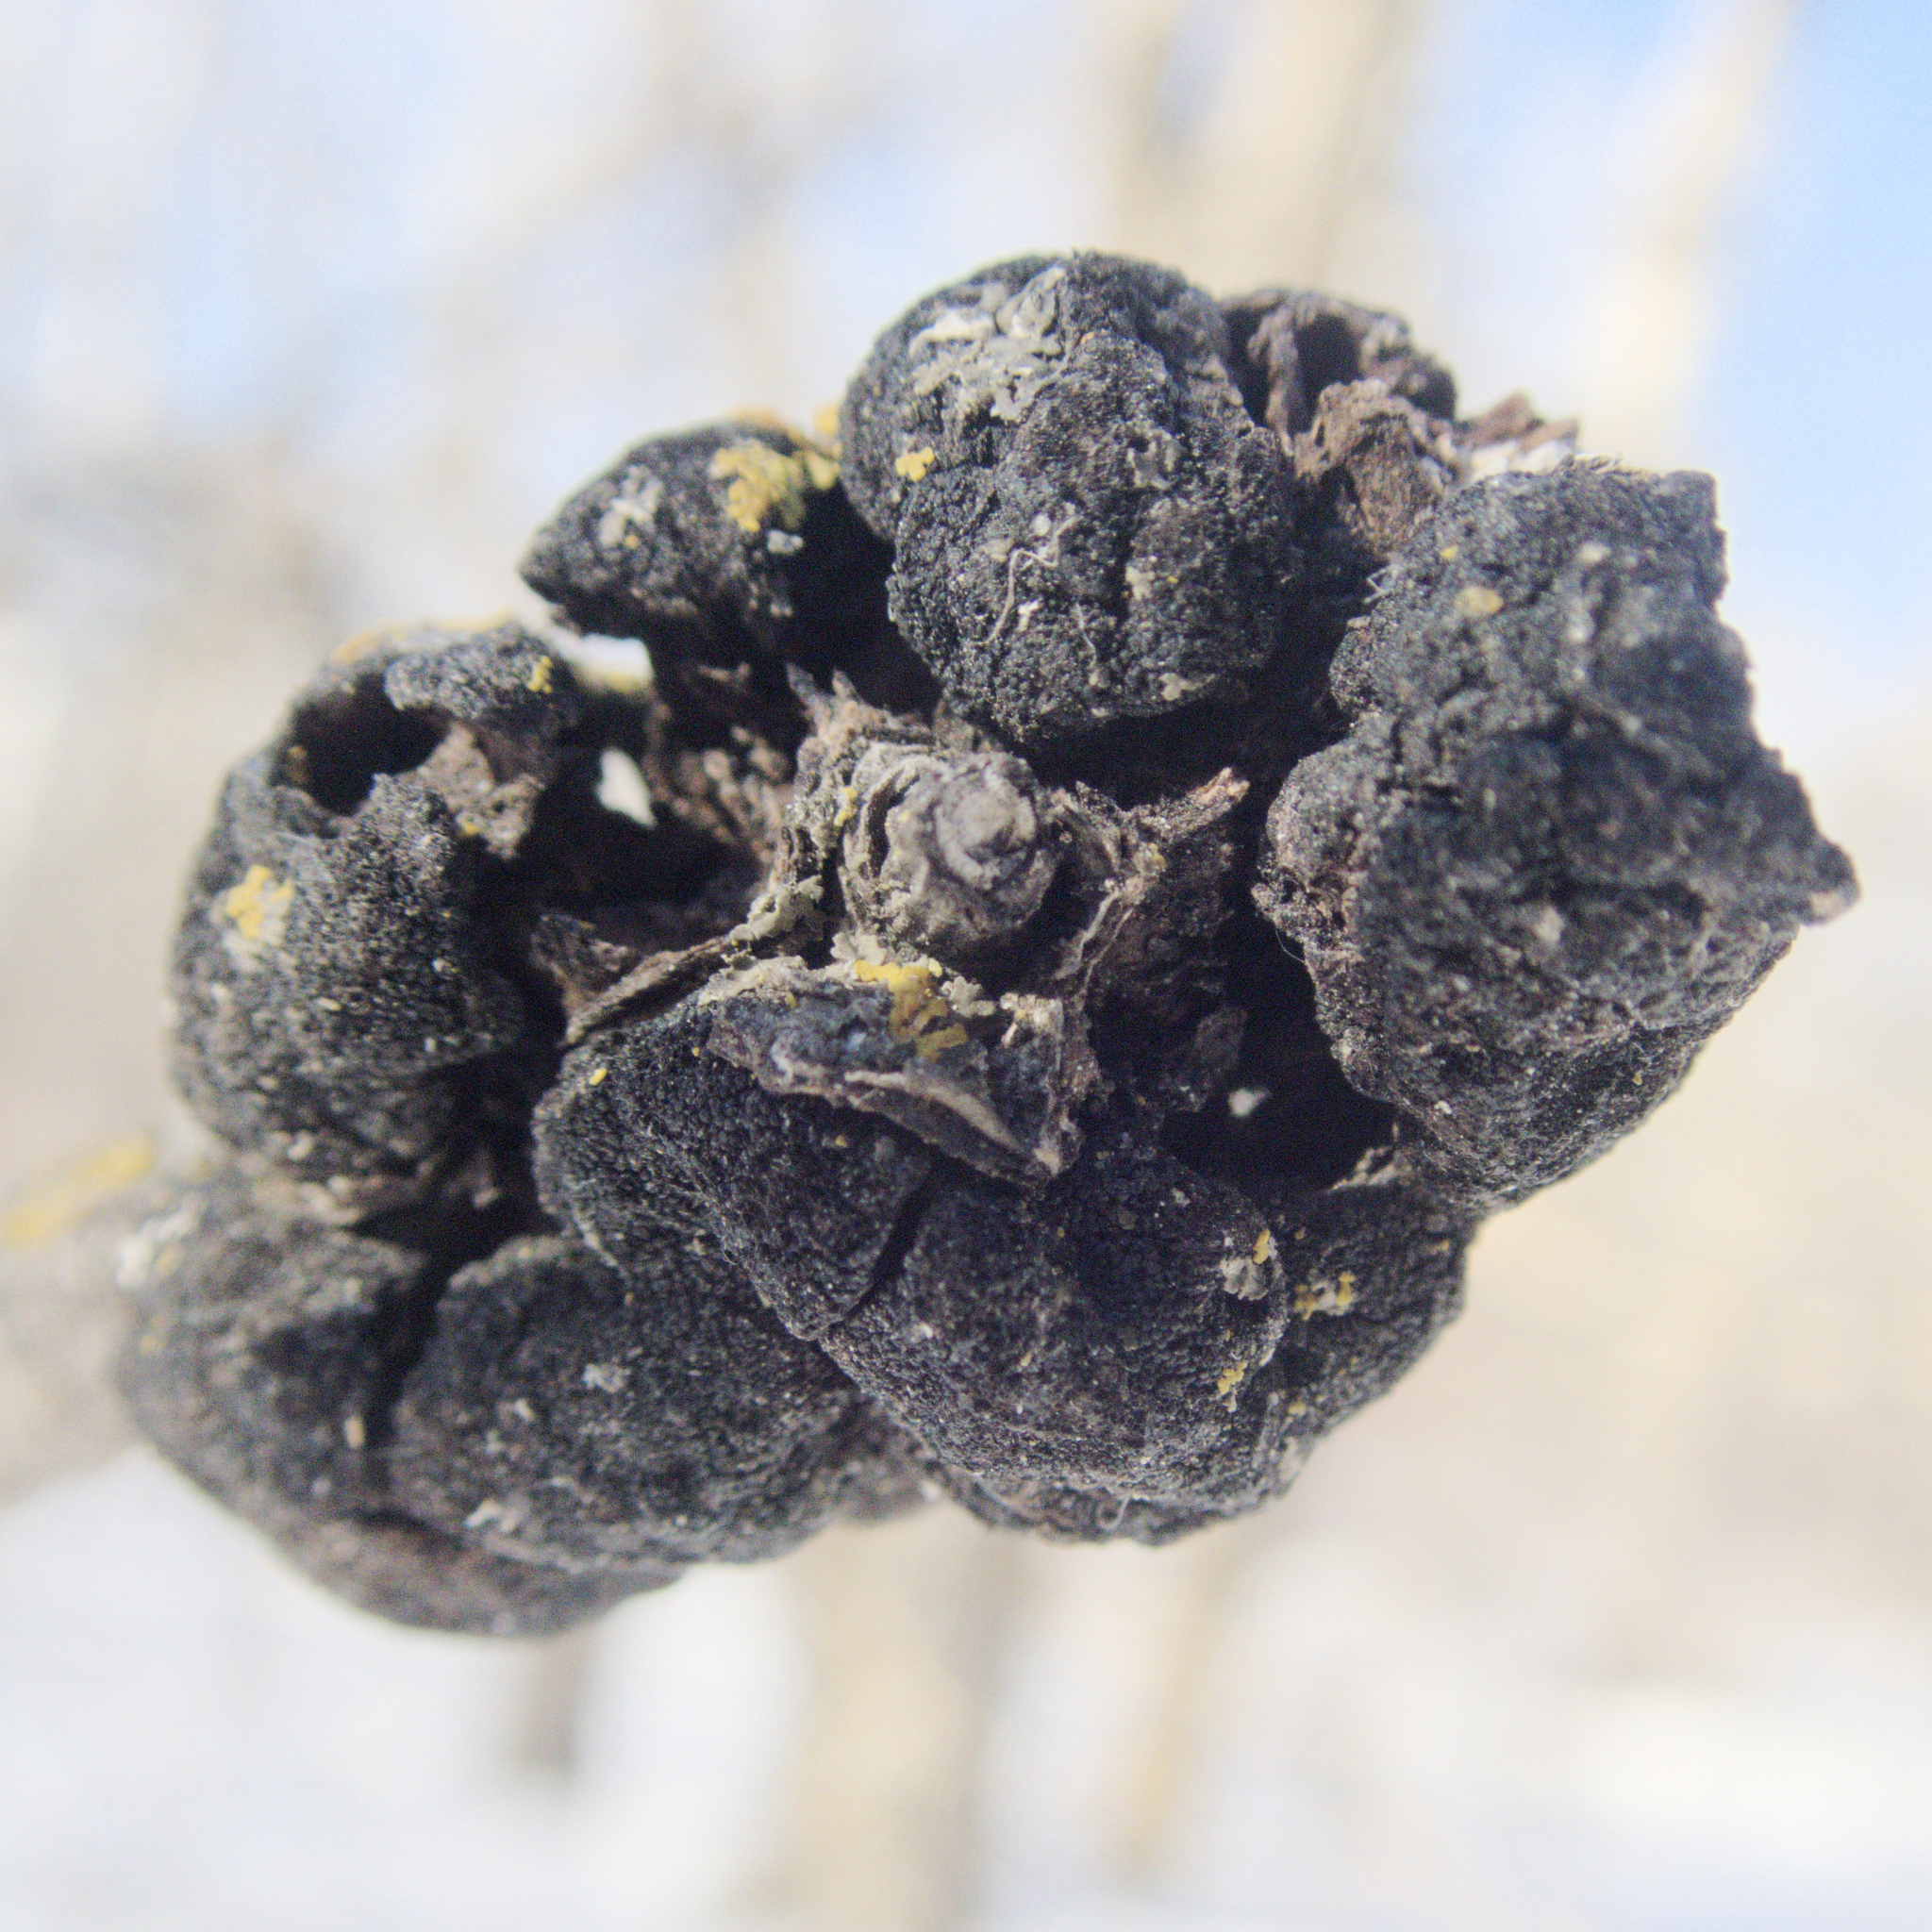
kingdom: Fungi
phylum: Ascomycota
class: Dothideomycetes
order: Venturiales
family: Venturiaceae
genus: Apiosporina
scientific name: Apiosporina morbosa
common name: Black knot
